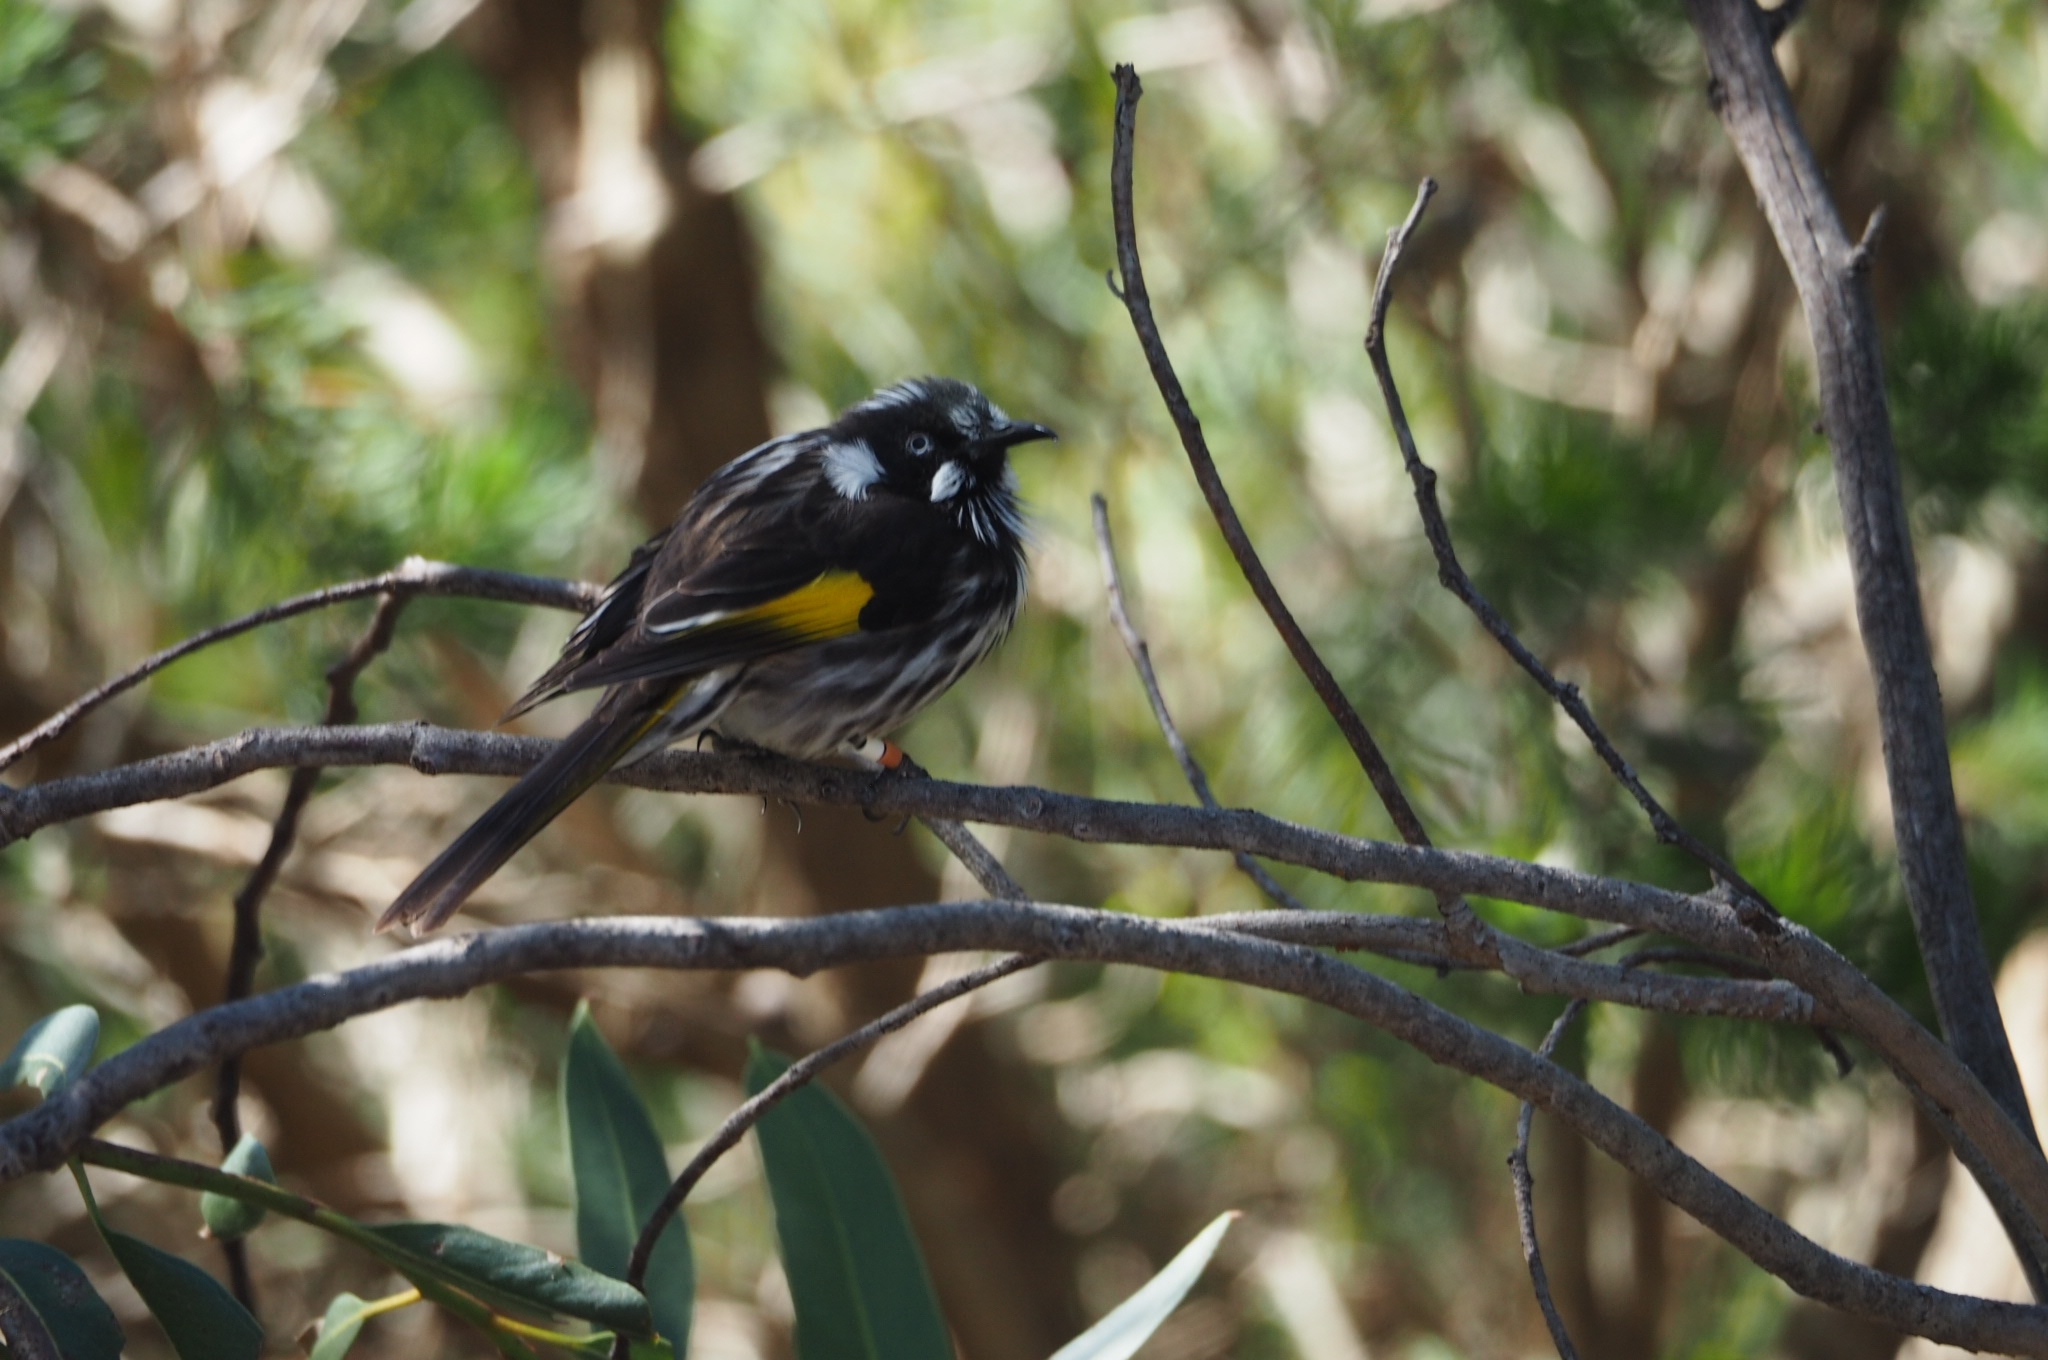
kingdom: Animalia
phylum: Chordata
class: Aves
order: Passeriformes
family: Meliphagidae
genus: Phylidonyris
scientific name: Phylidonyris novaehollandiae
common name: New holland honeyeater
